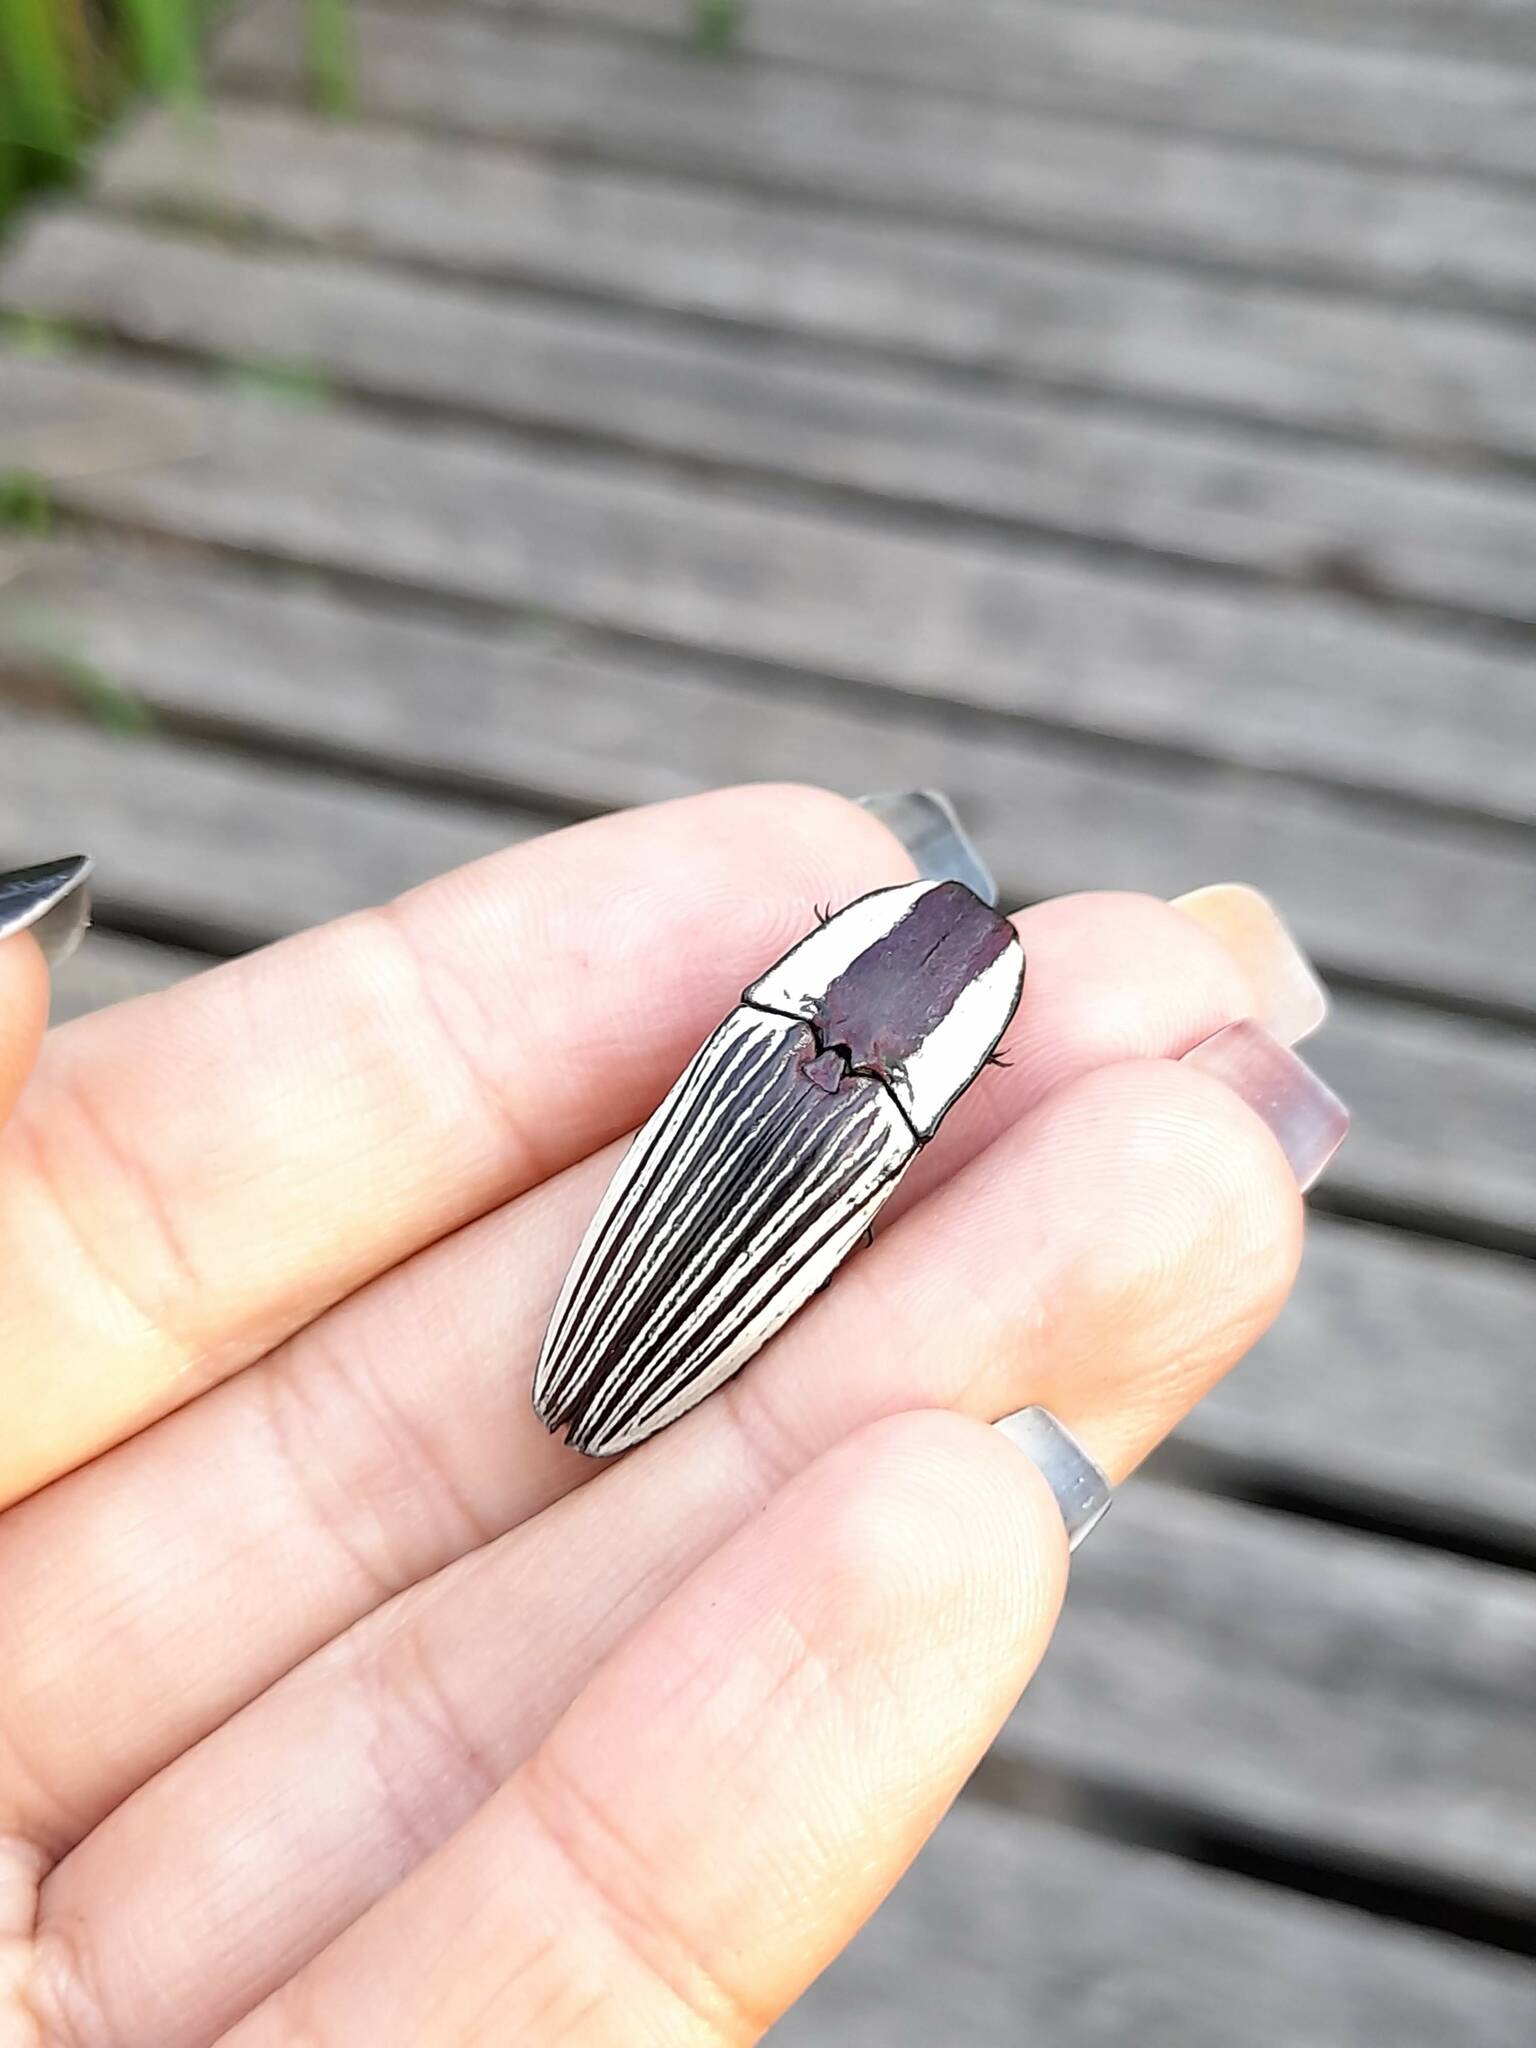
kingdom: Animalia
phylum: Arthropoda
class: Insecta
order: Coleoptera
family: Elateridae
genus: Chalcolepidius
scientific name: Chalcolepidius
